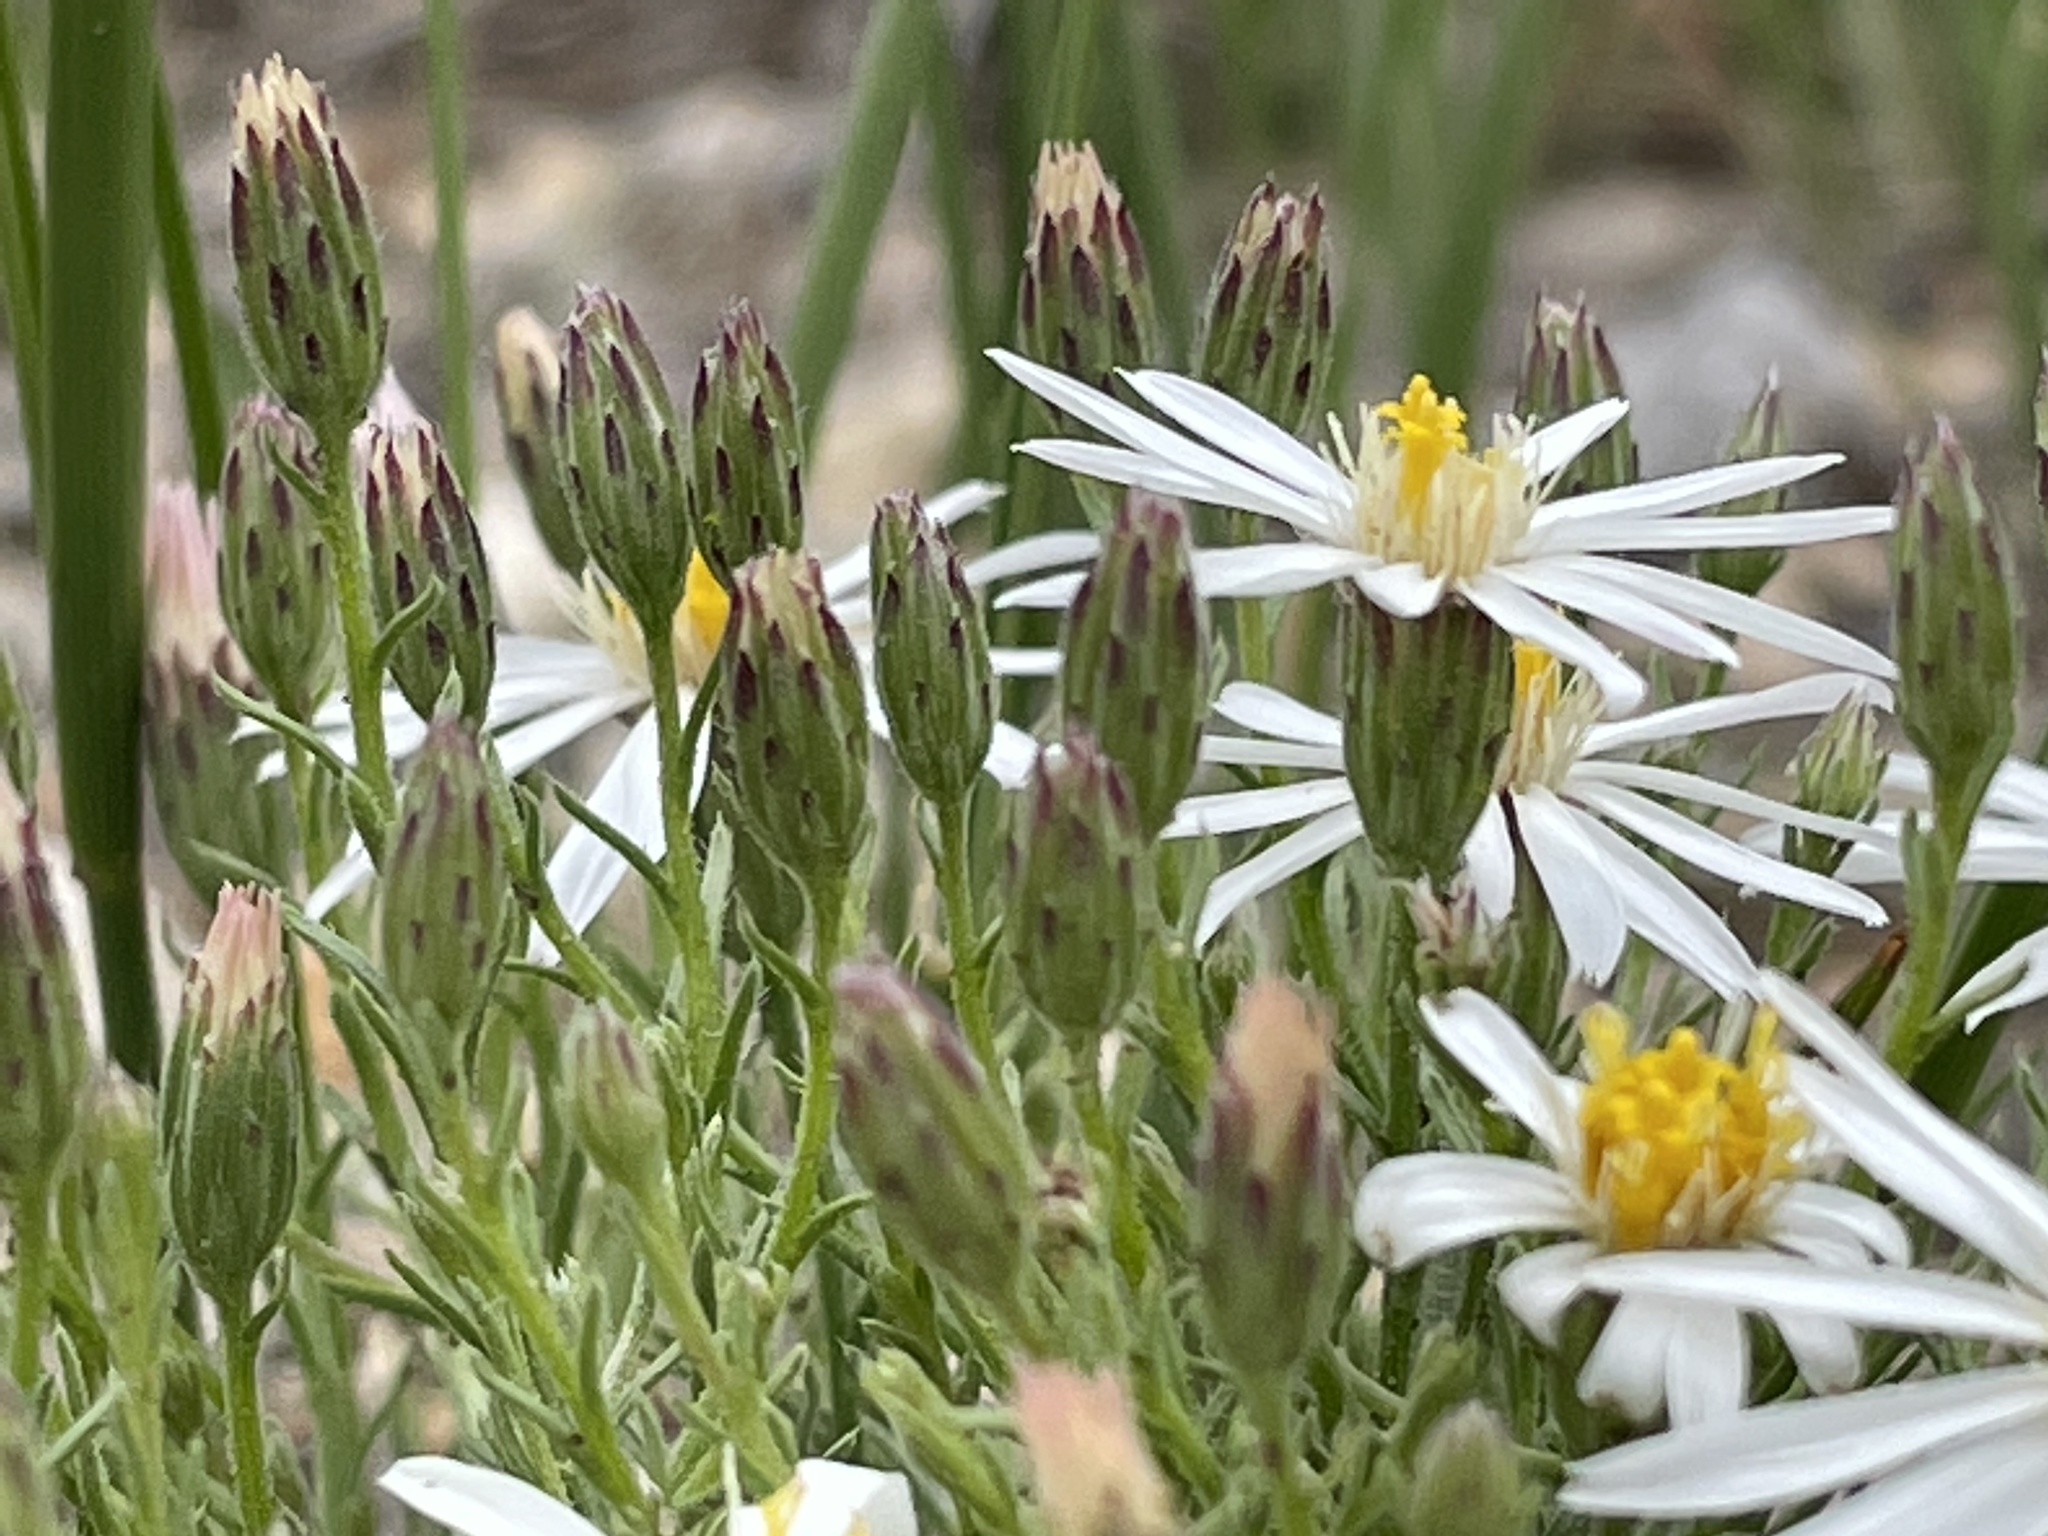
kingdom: Plantae
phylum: Tracheophyta
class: Magnoliopsida
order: Asterales
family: Asteraceae
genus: Chaetopappa
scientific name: Chaetopappa ericoides
